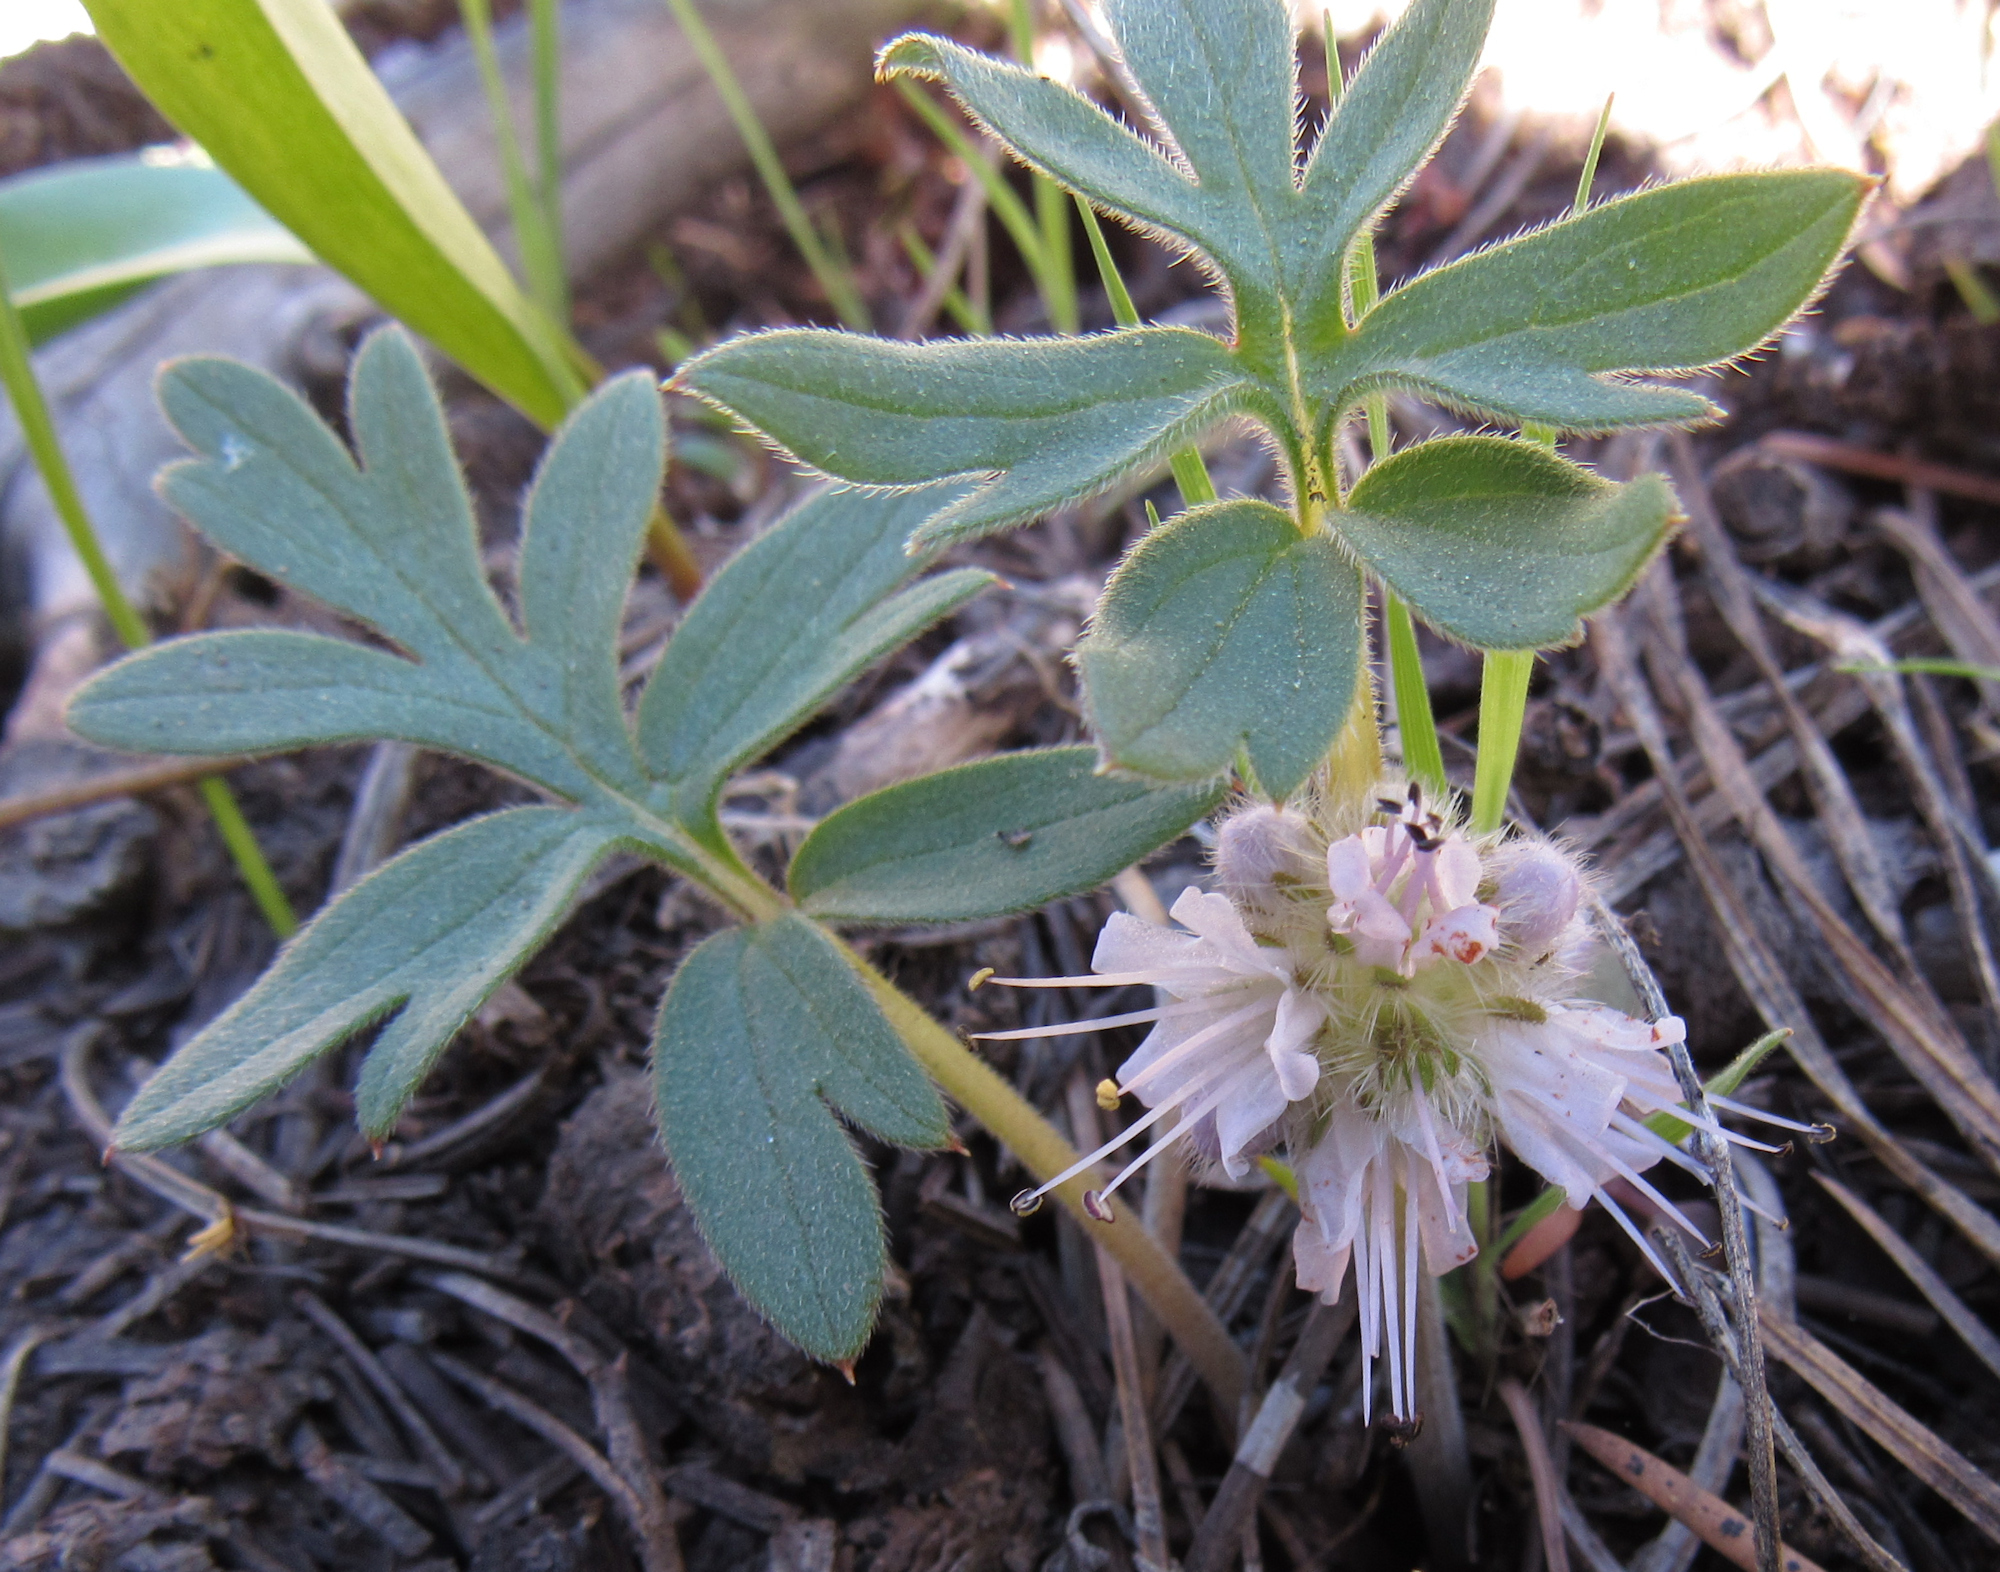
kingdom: Plantae
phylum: Tracheophyta
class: Magnoliopsida
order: Boraginales
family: Hydrophyllaceae
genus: Hydrophyllum
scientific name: Hydrophyllum capitatum
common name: Woollen-breeches
